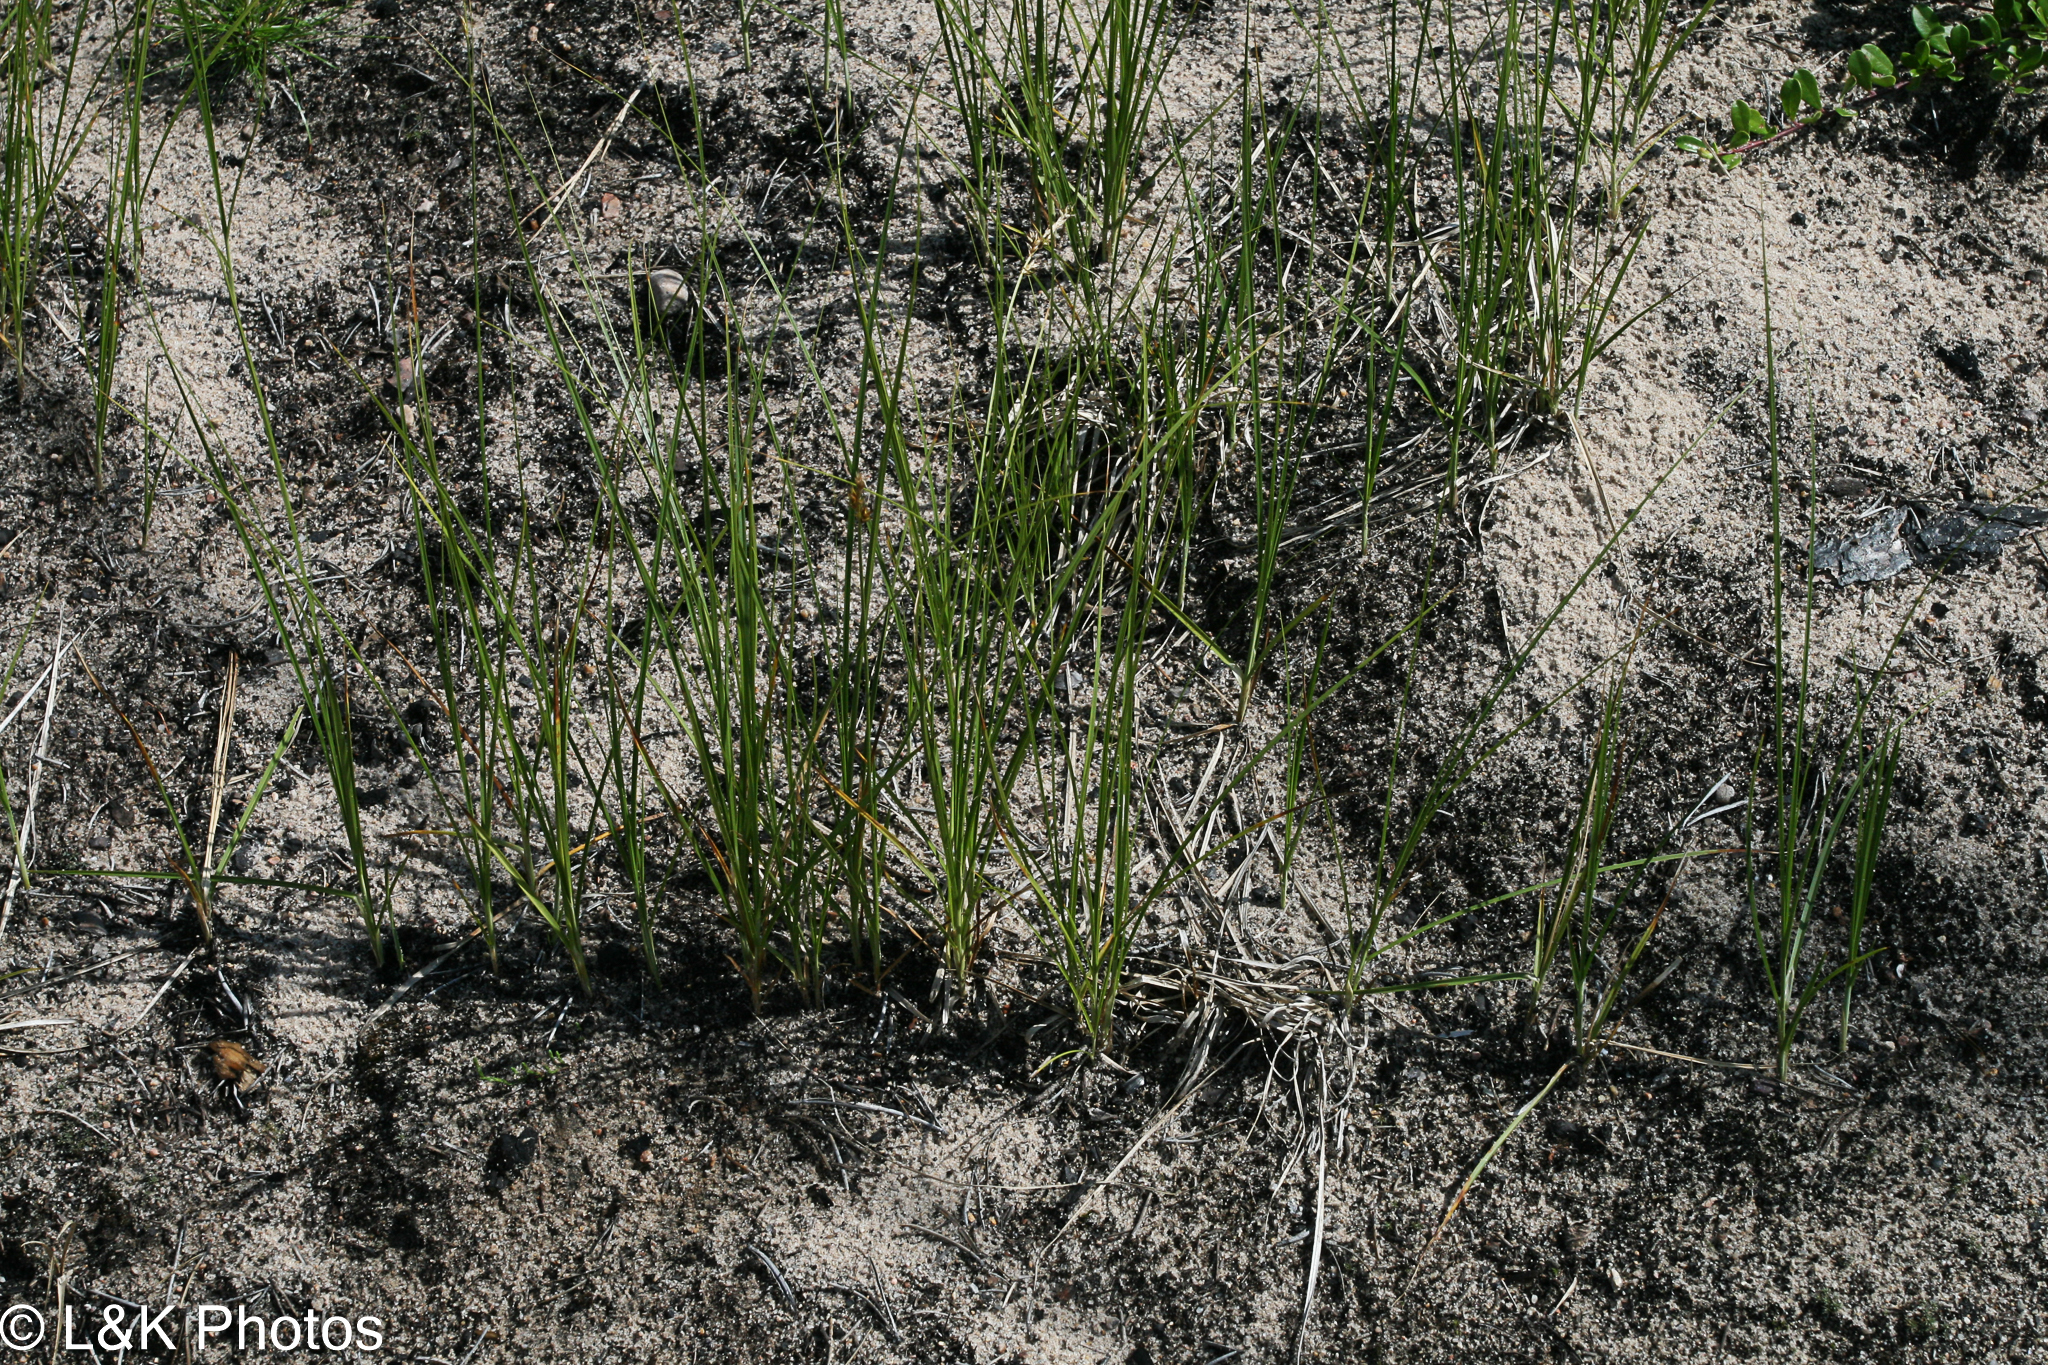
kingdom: Plantae
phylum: Tracheophyta
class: Liliopsida
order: Poales
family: Cyperaceae
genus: Carex
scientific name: Carex siccata
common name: Dry sedge
